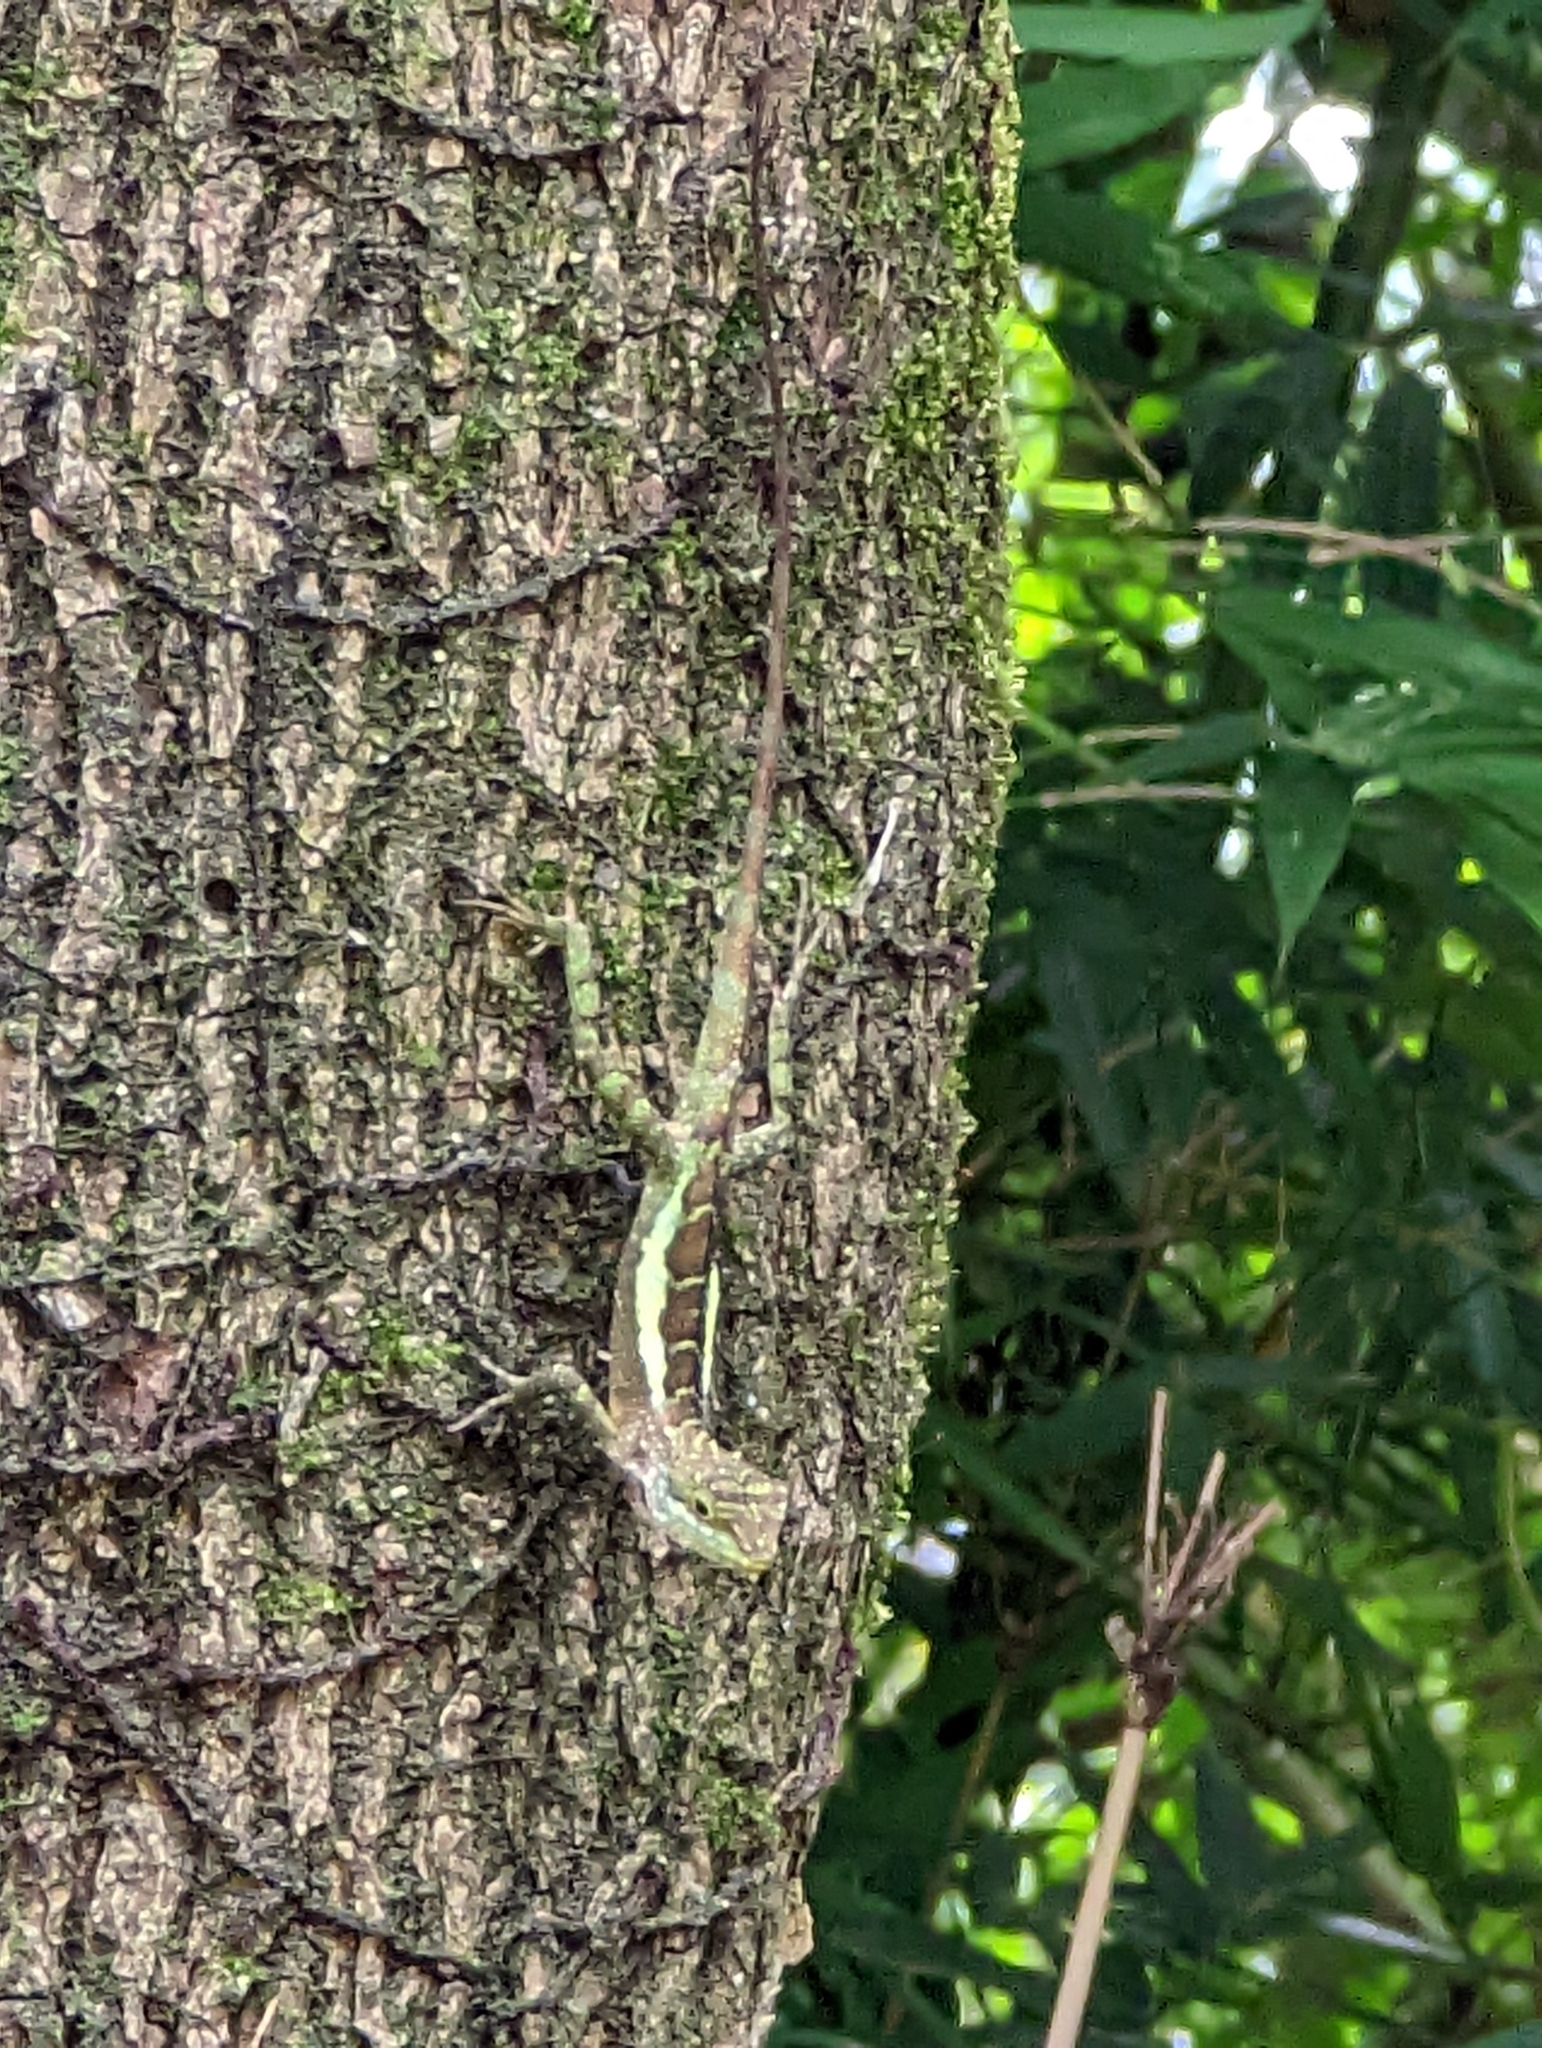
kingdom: Fungi
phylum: Basidiomycota
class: Agaricomycetes
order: Boletales
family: Diplocystidiaceae
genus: Diploderma
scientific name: Diploderma polygonatum
